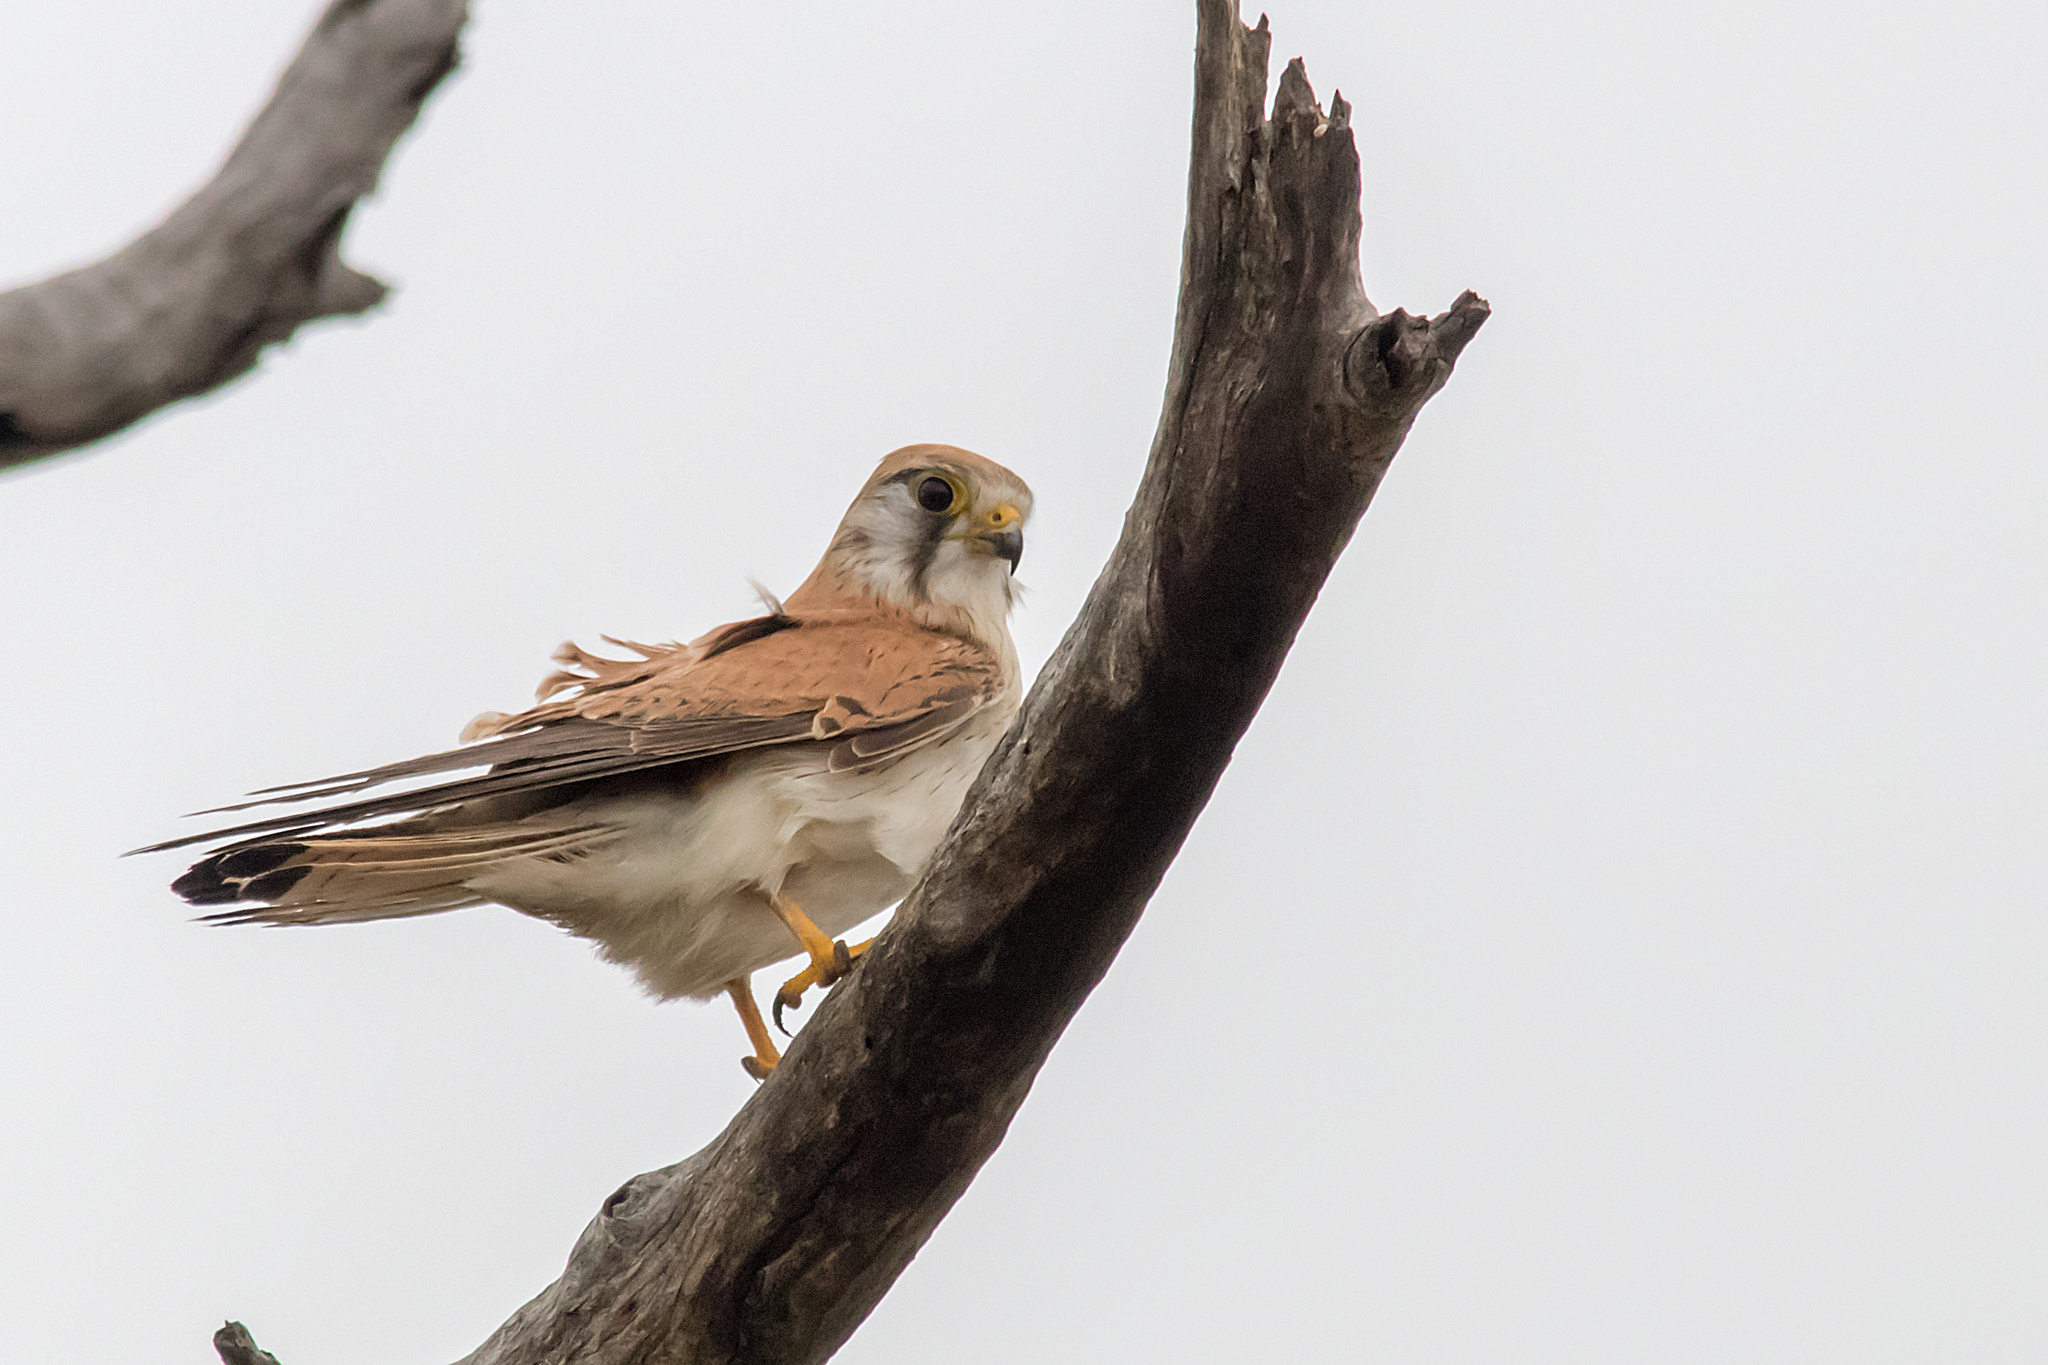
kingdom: Animalia
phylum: Chordata
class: Aves
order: Falconiformes
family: Falconidae
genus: Falco
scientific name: Falco cenchroides
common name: Nankeen kestrel
